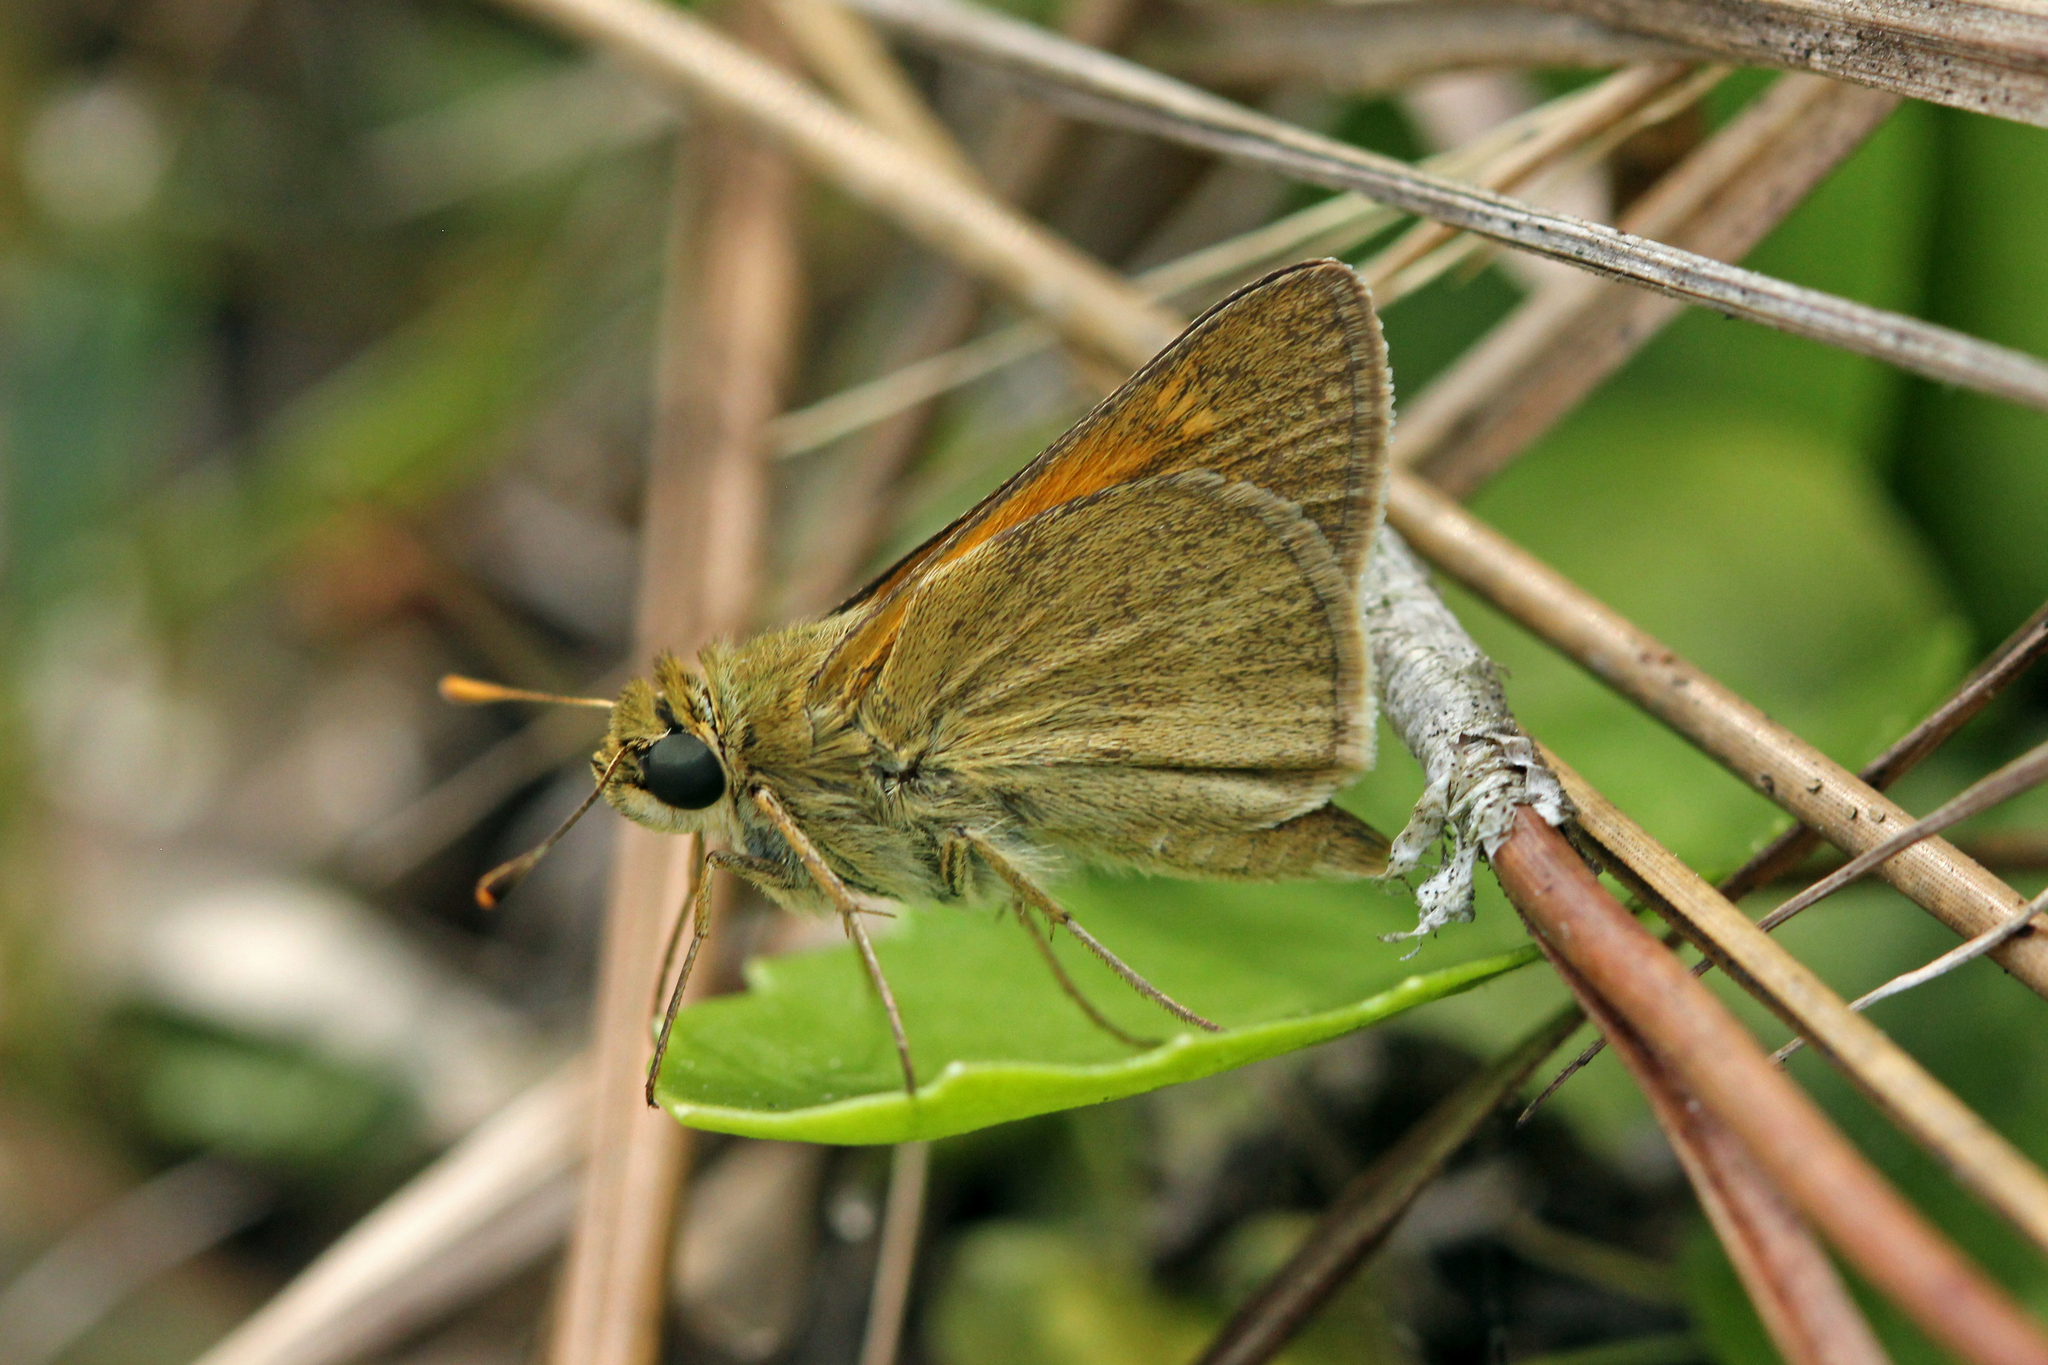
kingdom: Animalia
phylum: Arthropoda
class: Insecta
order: Lepidoptera
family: Hesperiidae
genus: Polites
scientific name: Polites themistocles
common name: Tawny-edged skipper
